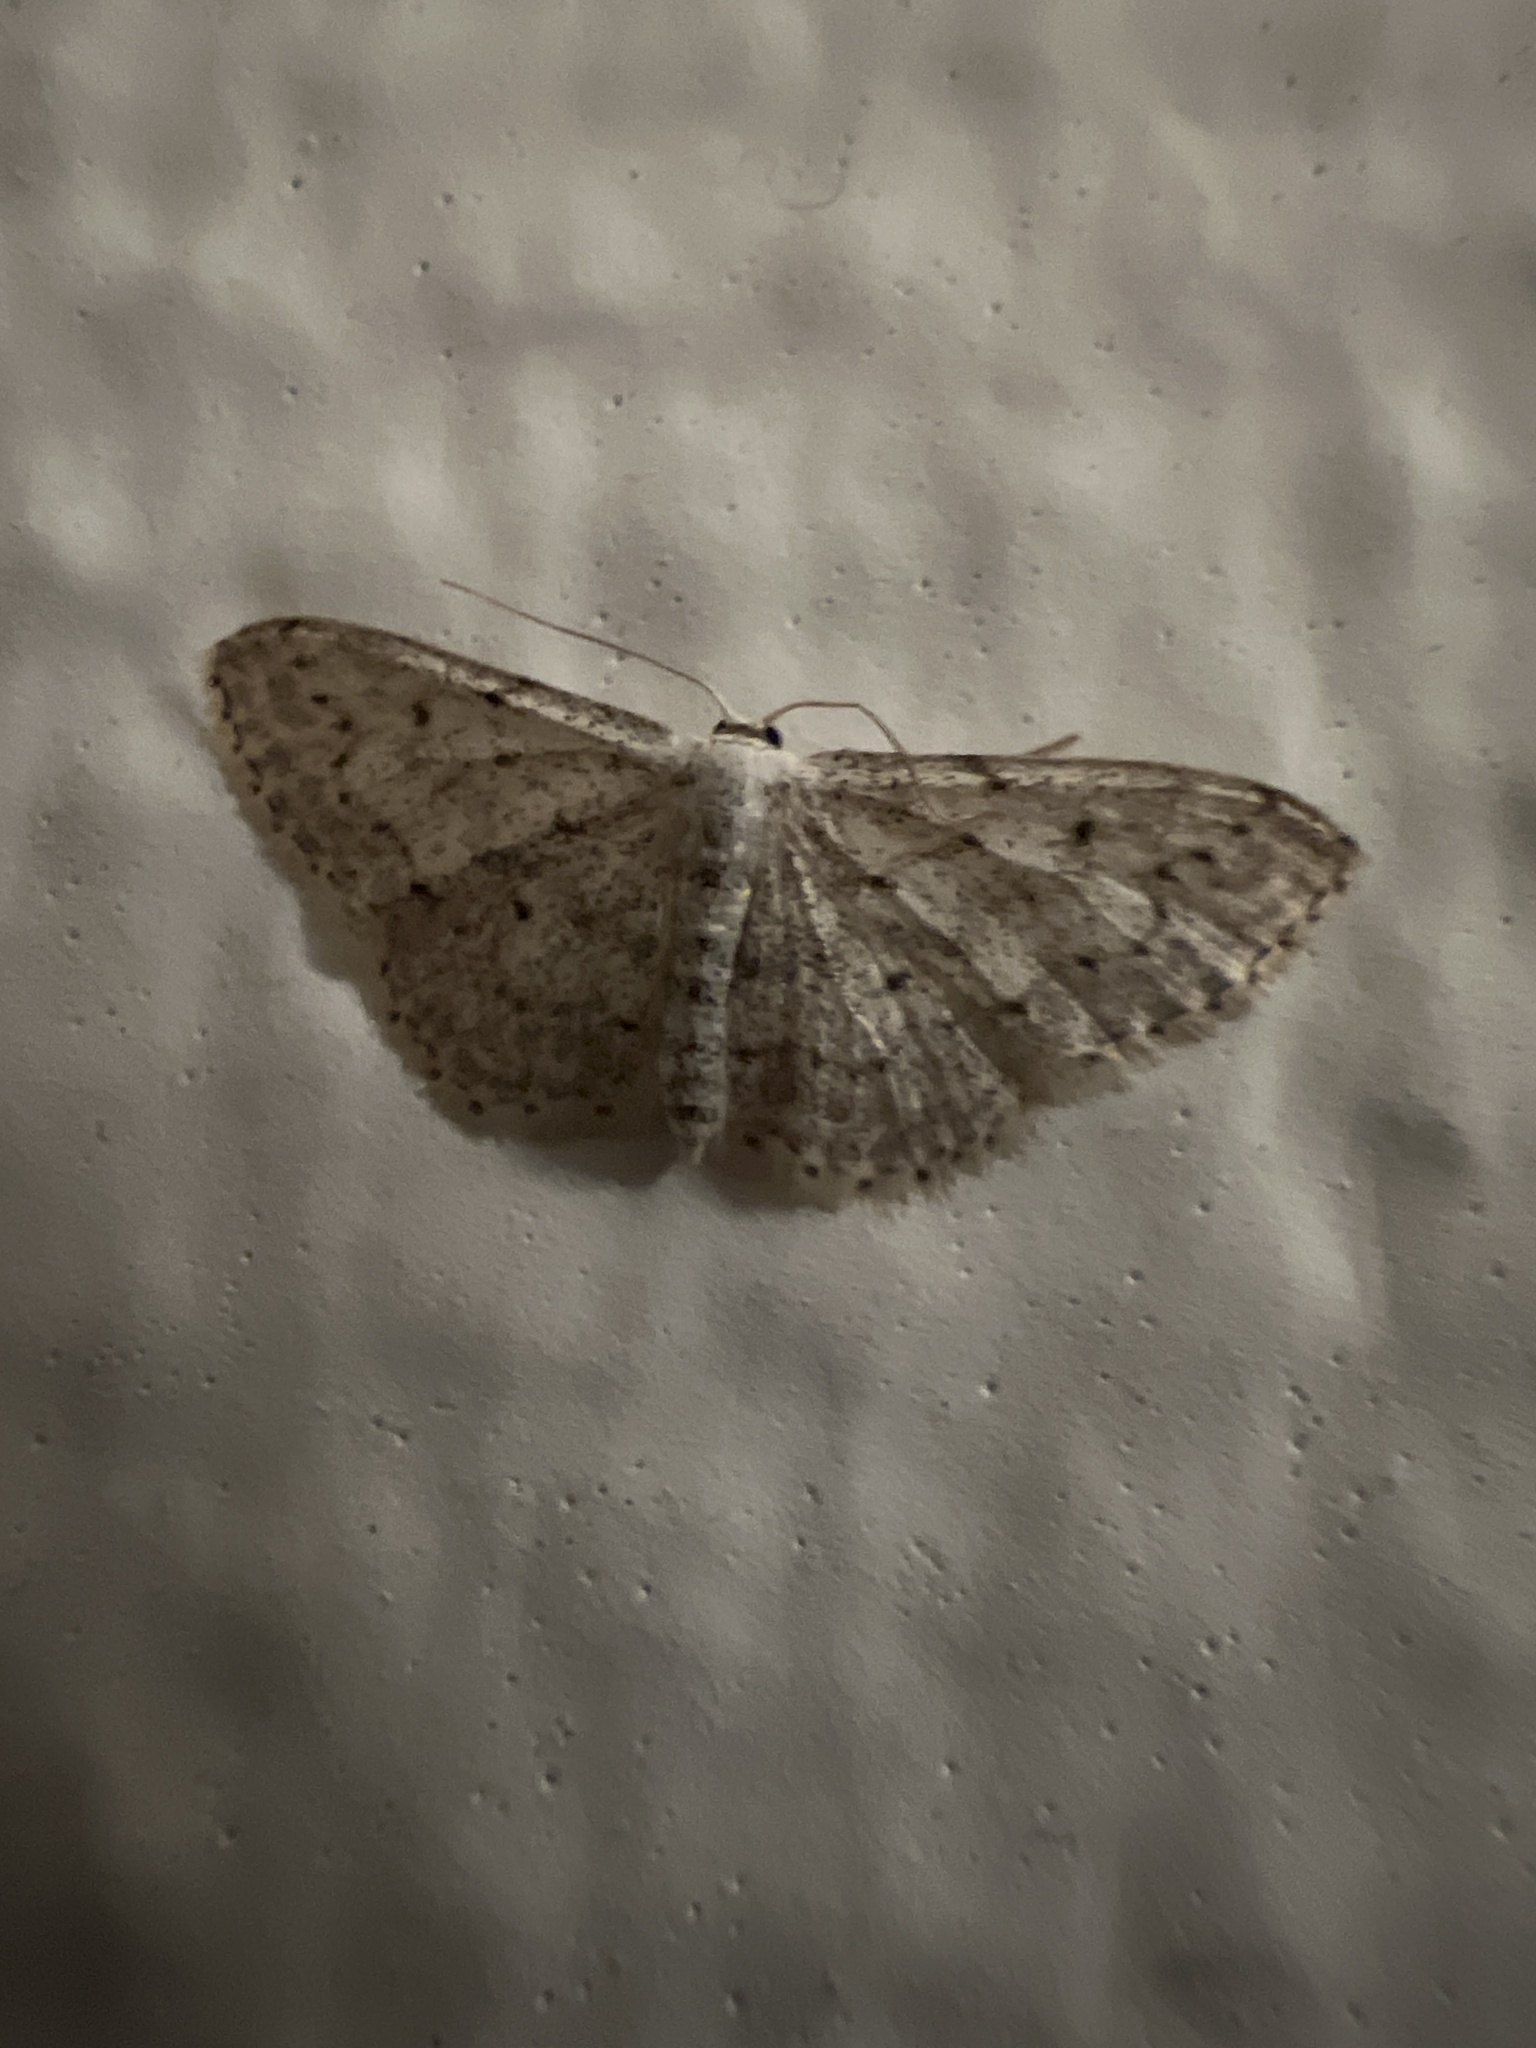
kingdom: Animalia
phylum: Arthropoda
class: Insecta
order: Lepidoptera
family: Geometridae
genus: Idaea
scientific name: Idaea seriata
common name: Small dusty wave
